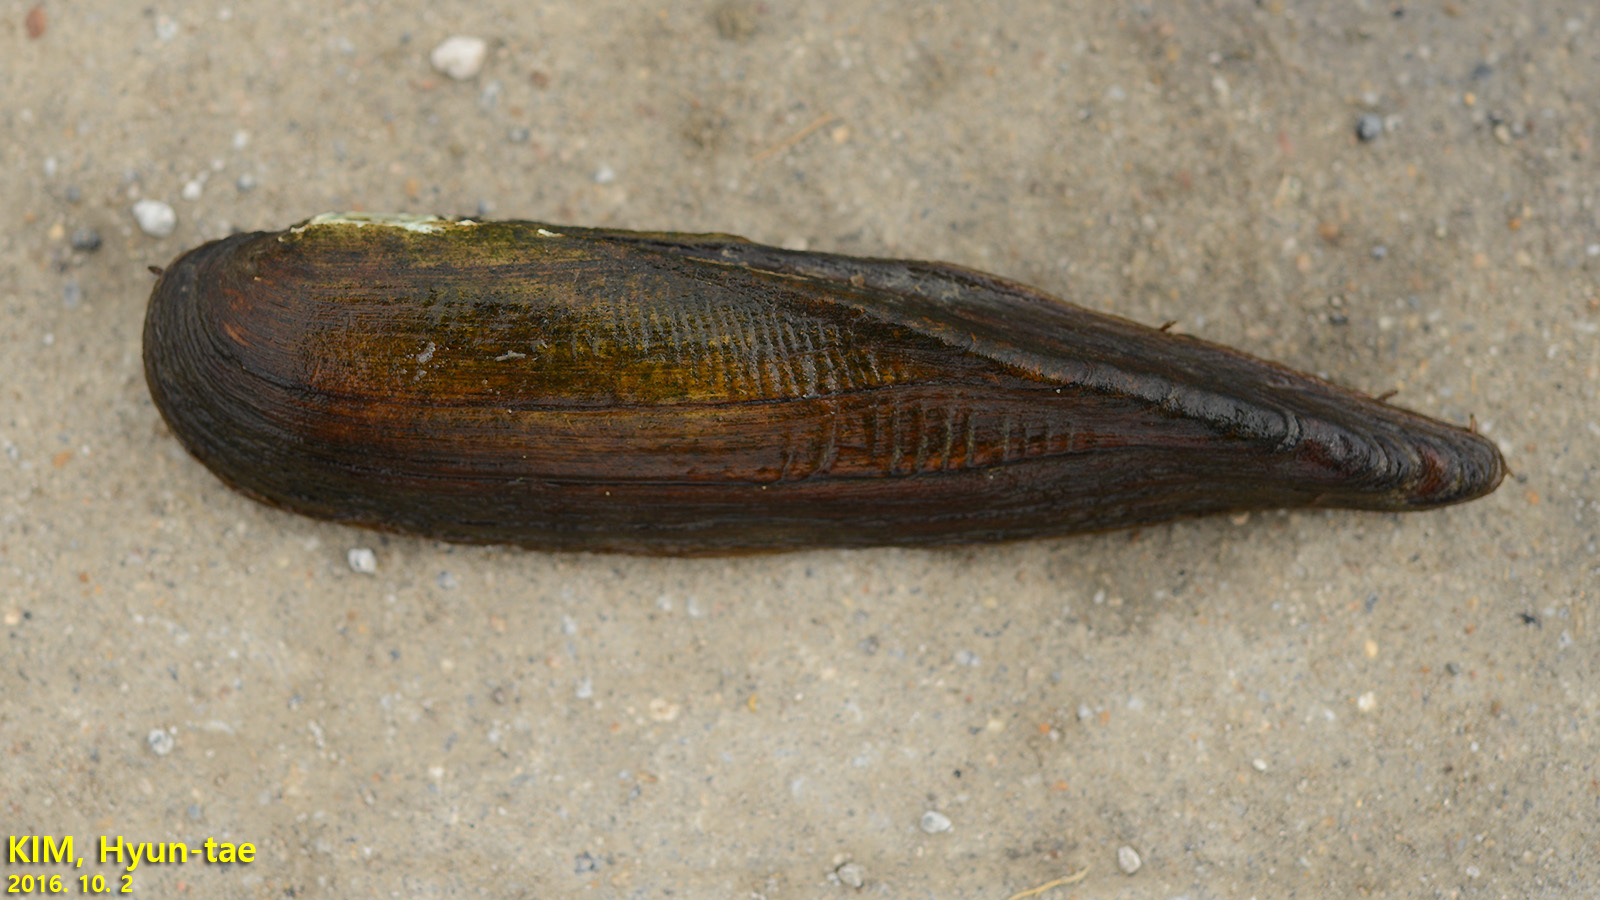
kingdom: Animalia
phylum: Mollusca
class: Bivalvia
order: Unionida
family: Unionidae
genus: Lanceolaria
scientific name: Lanceolaria acrorrhyncha
